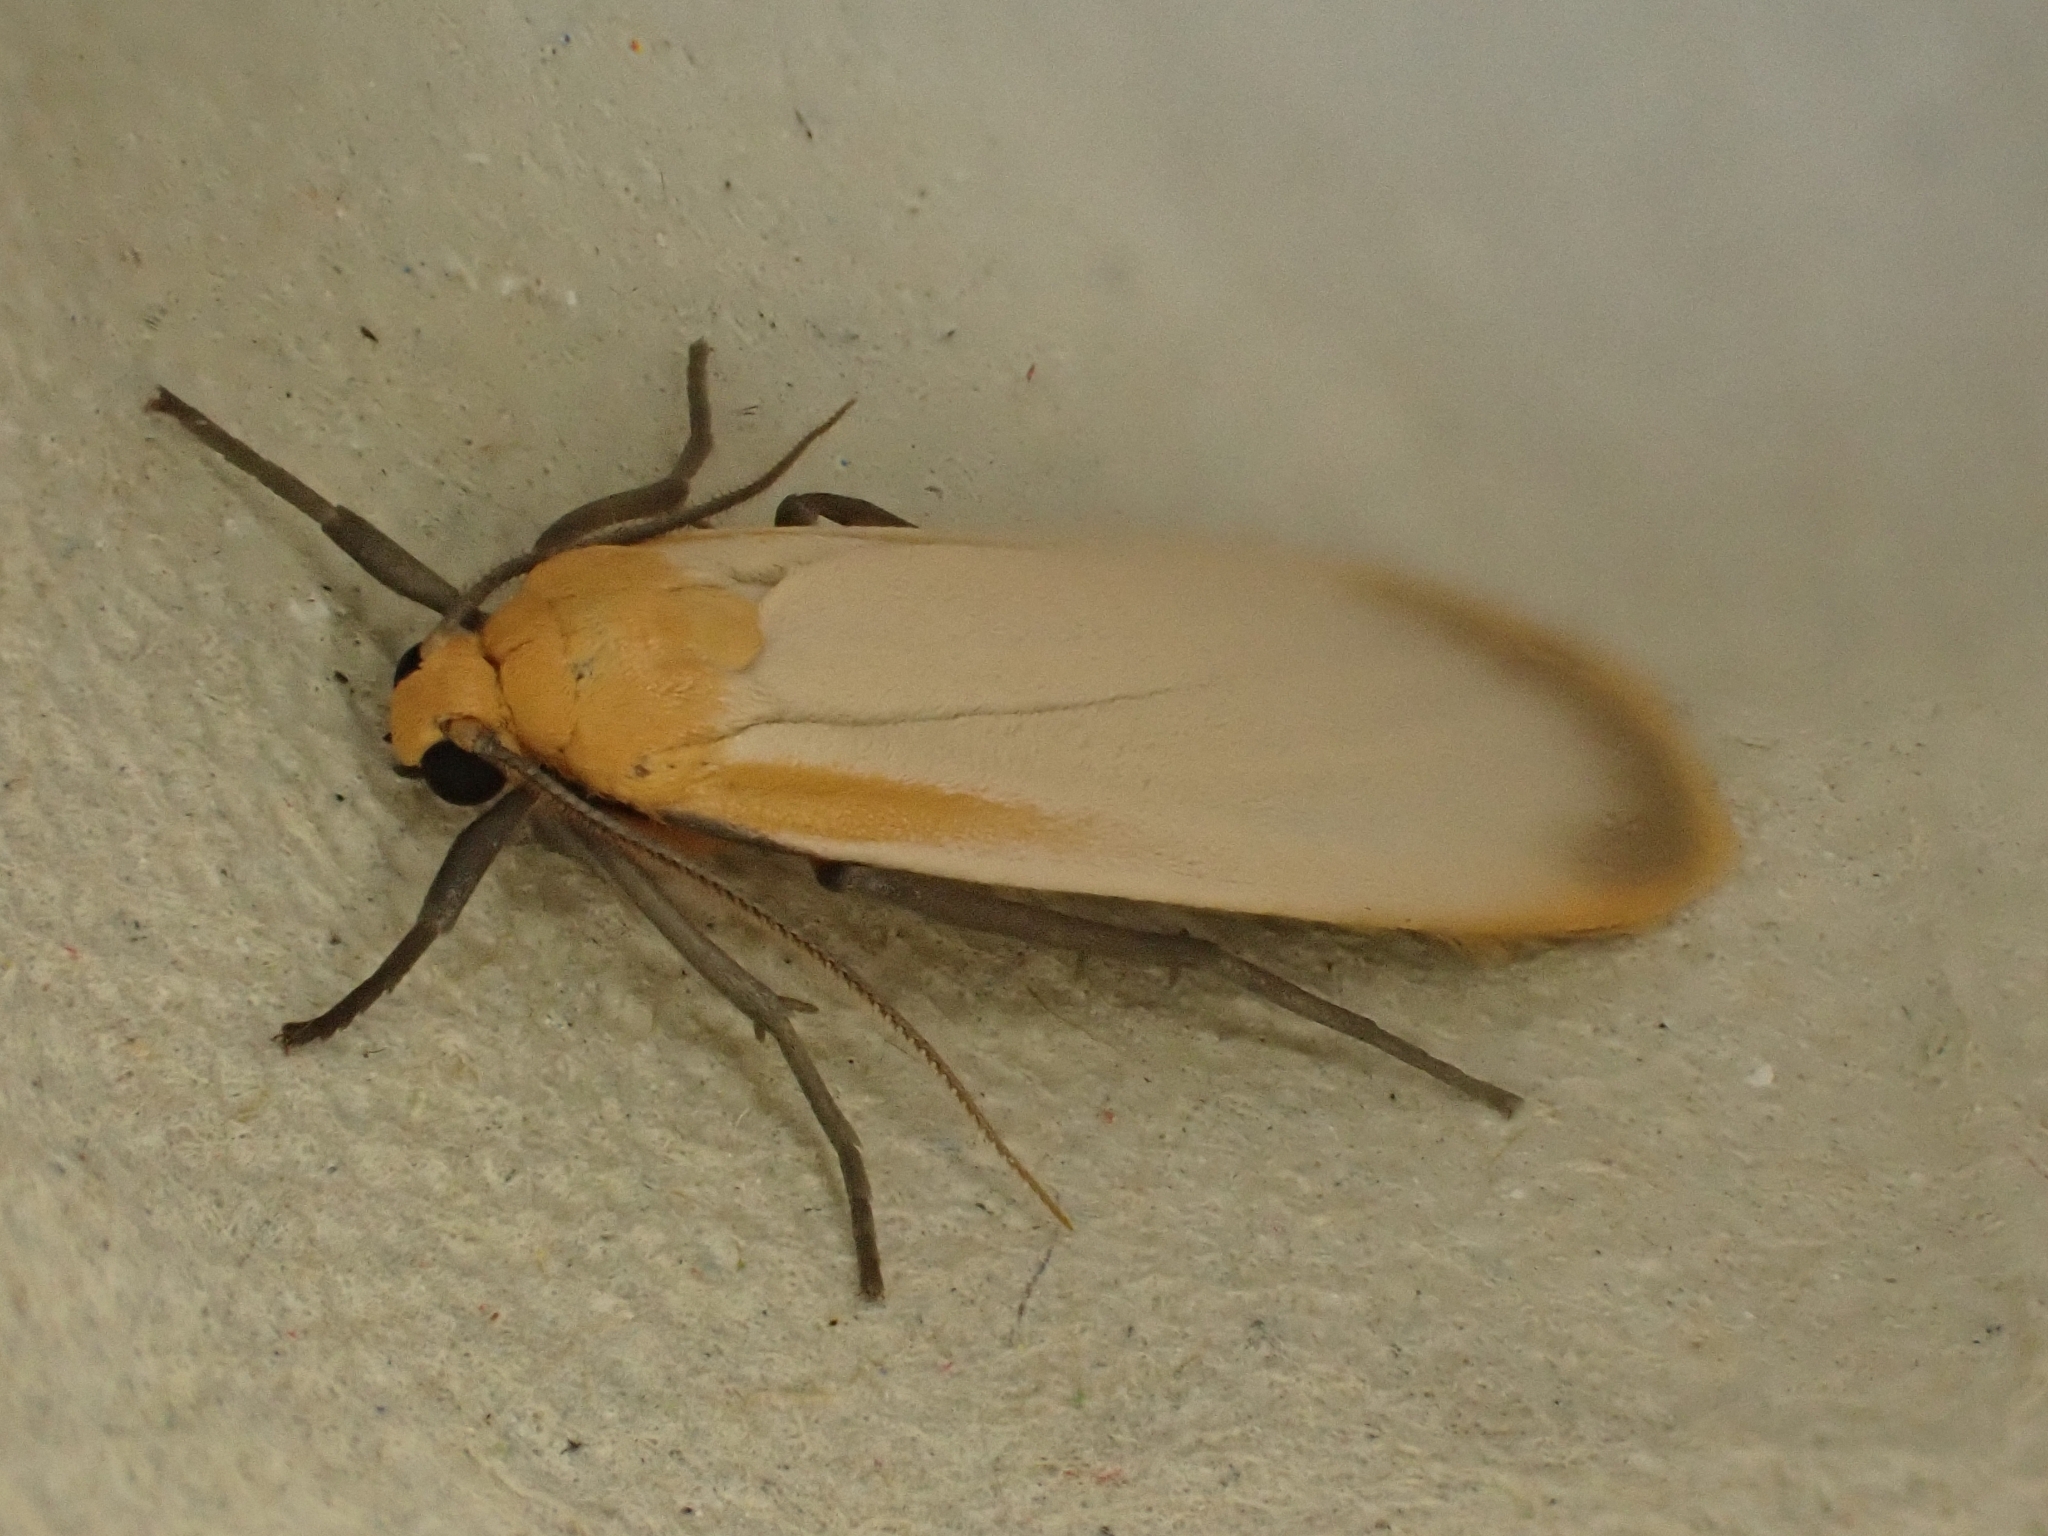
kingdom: Animalia
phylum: Arthropoda
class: Insecta
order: Lepidoptera
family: Erebidae
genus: Katha
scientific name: Katha depressa
